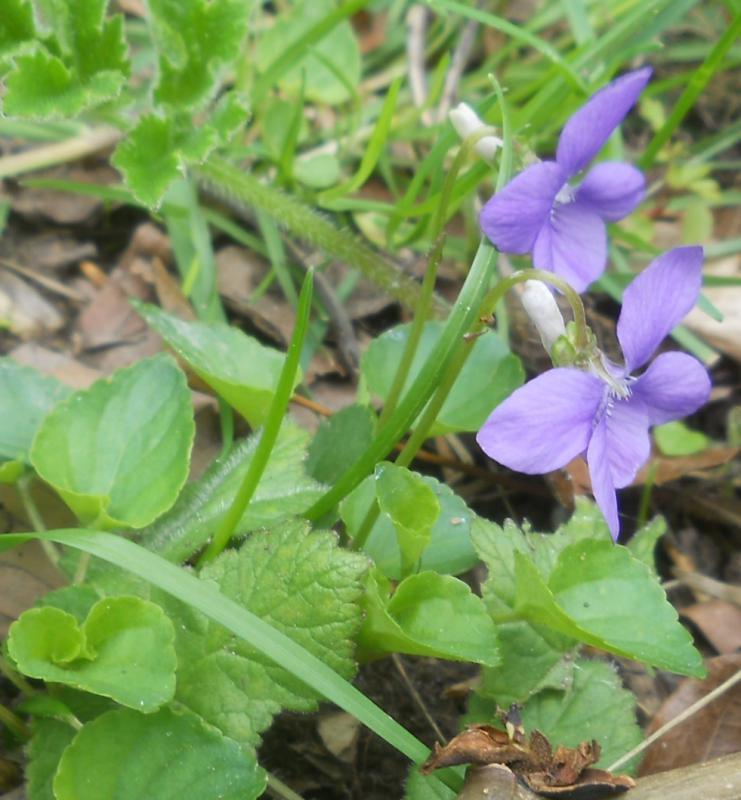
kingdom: Plantae
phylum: Tracheophyta
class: Magnoliopsida
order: Malpighiales
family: Violaceae
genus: Viola
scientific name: Viola riviniana
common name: Common dog-violet
